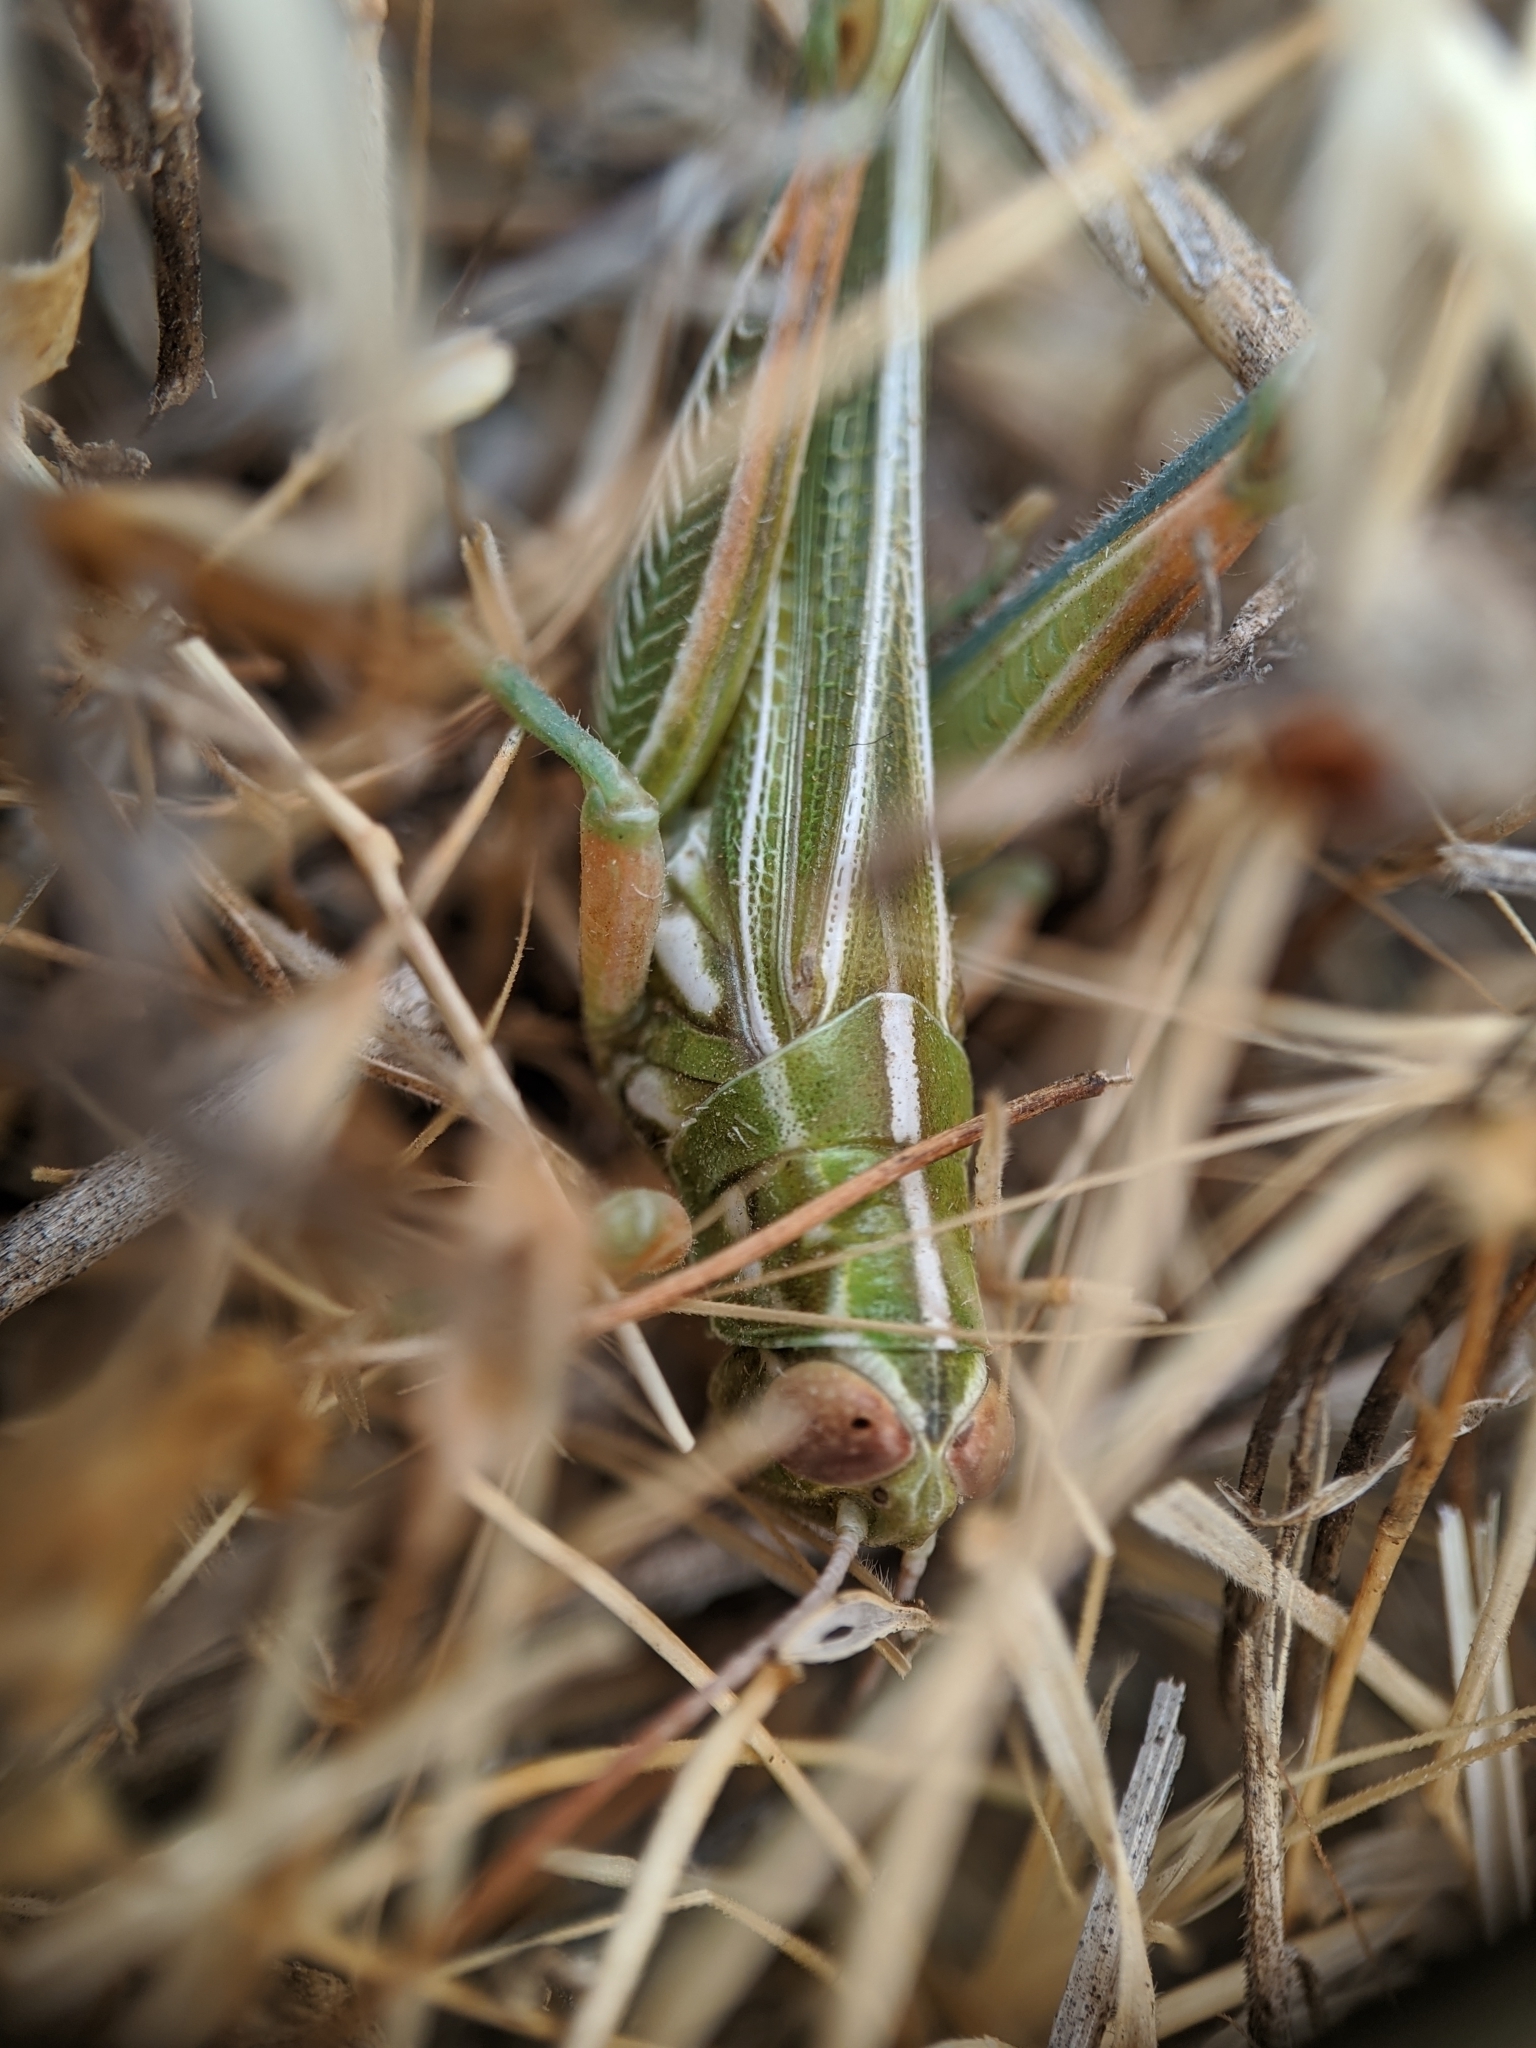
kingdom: Animalia
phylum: Arthropoda
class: Insecta
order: Orthoptera
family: Acrididae
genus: Hesperotettix
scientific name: Hesperotettix viridis
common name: Meadow purple-striped grasshopper
